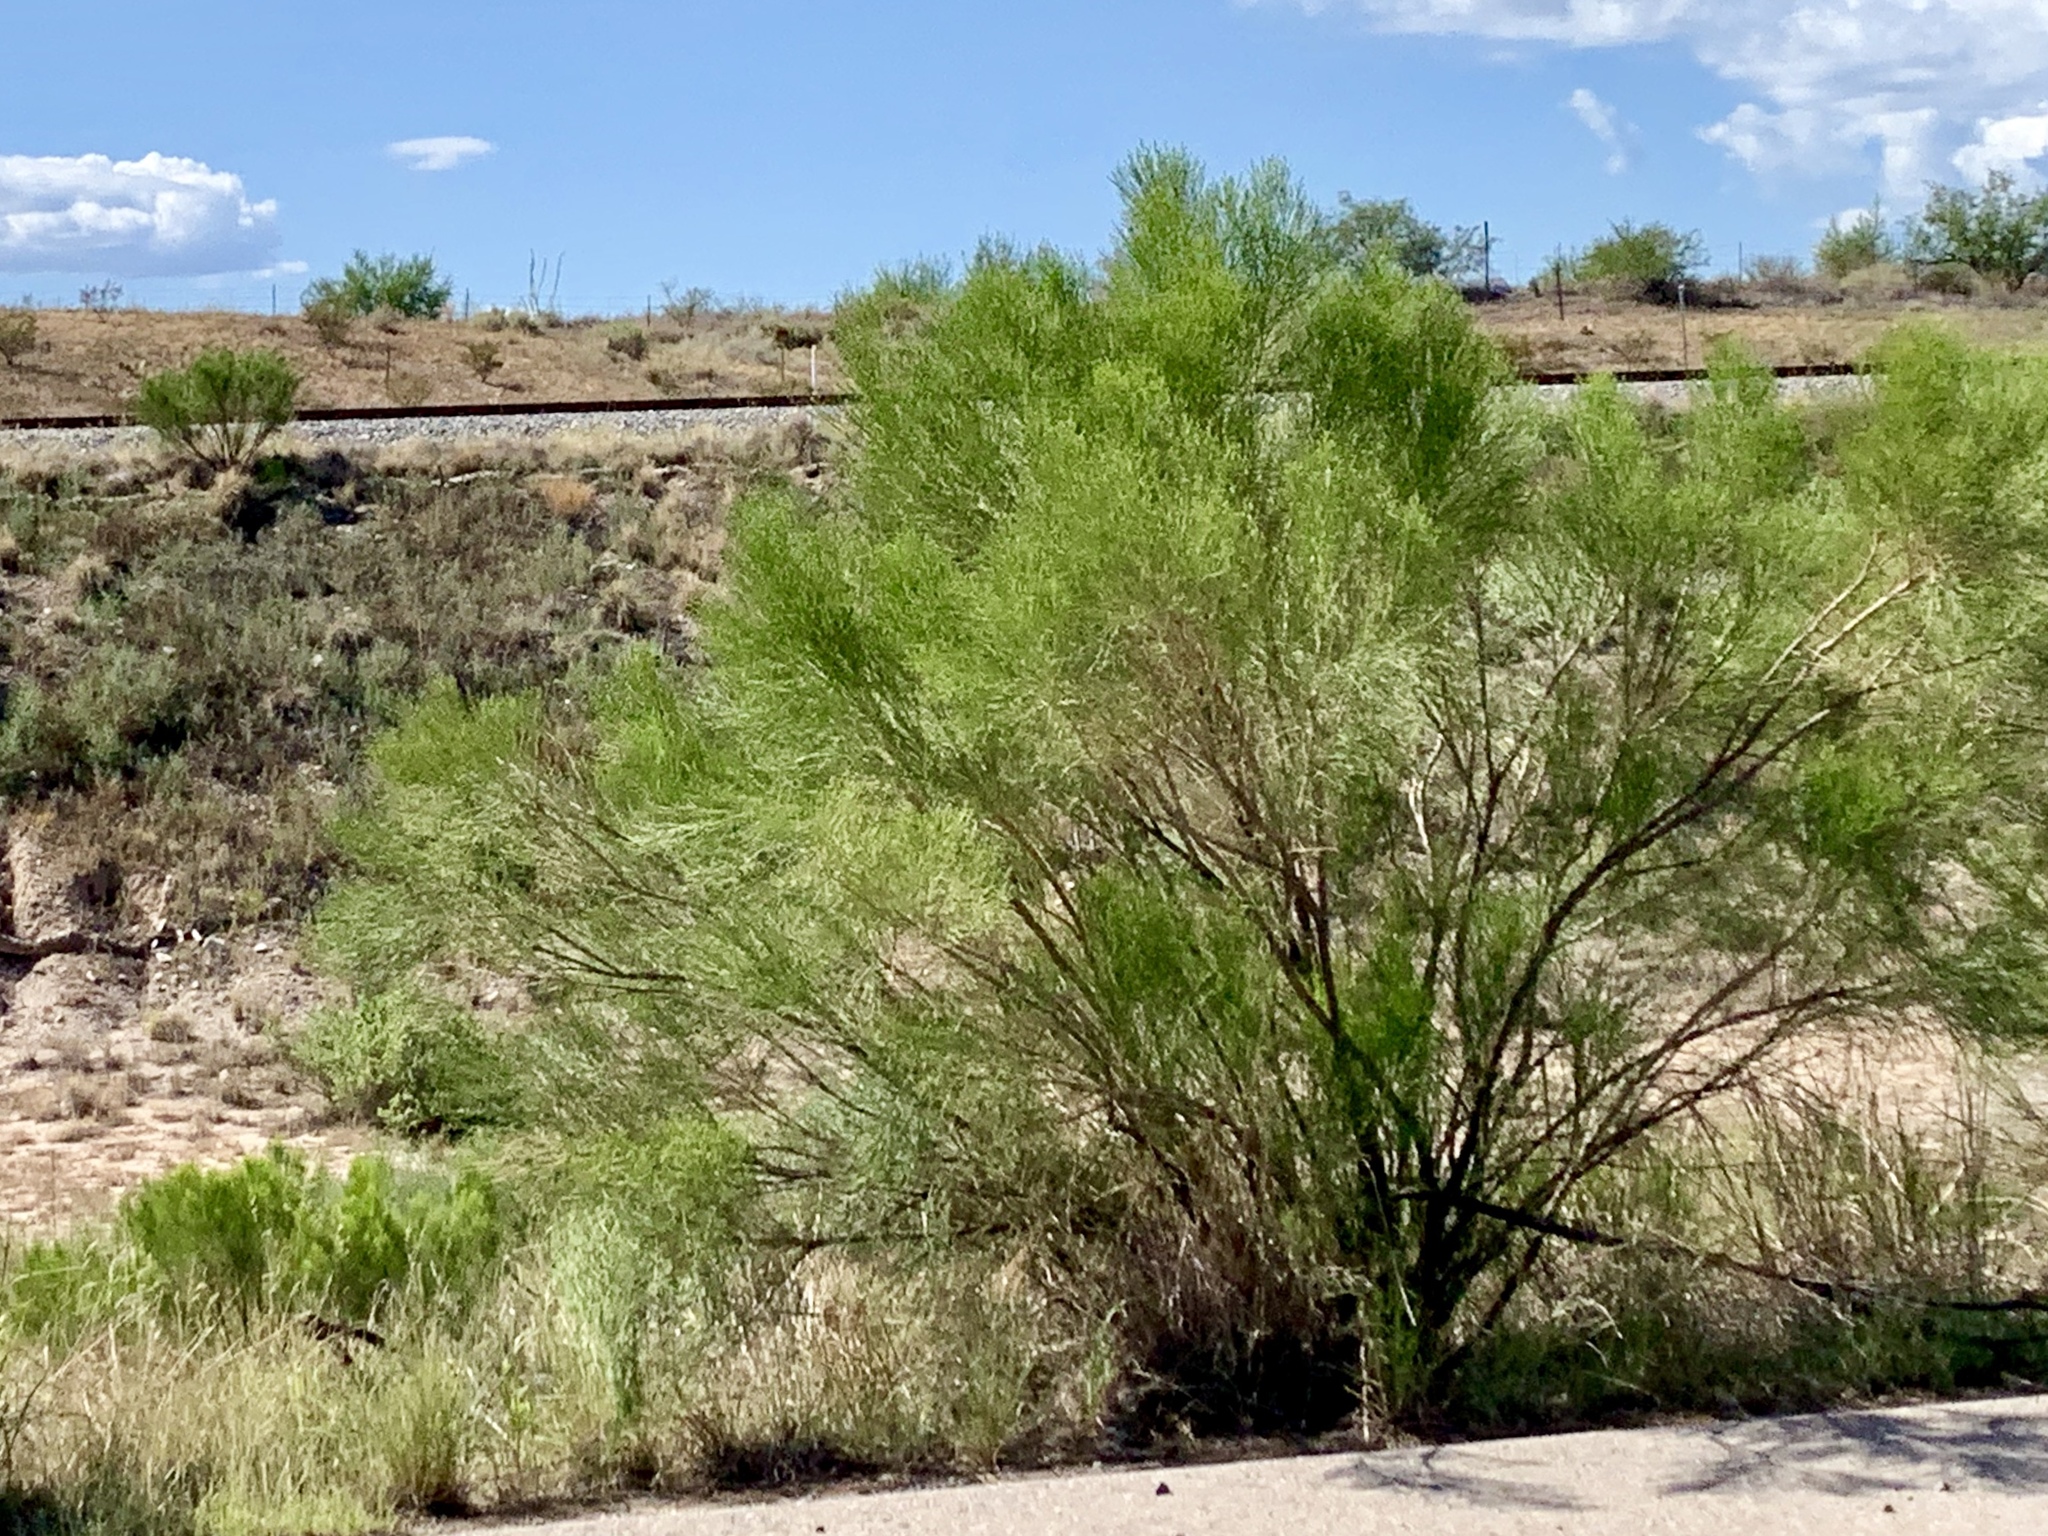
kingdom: Plantae
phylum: Tracheophyta
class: Magnoliopsida
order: Asterales
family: Asteraceae
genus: Baccharis
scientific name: Baccharis sarothroides
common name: Desert-broom
